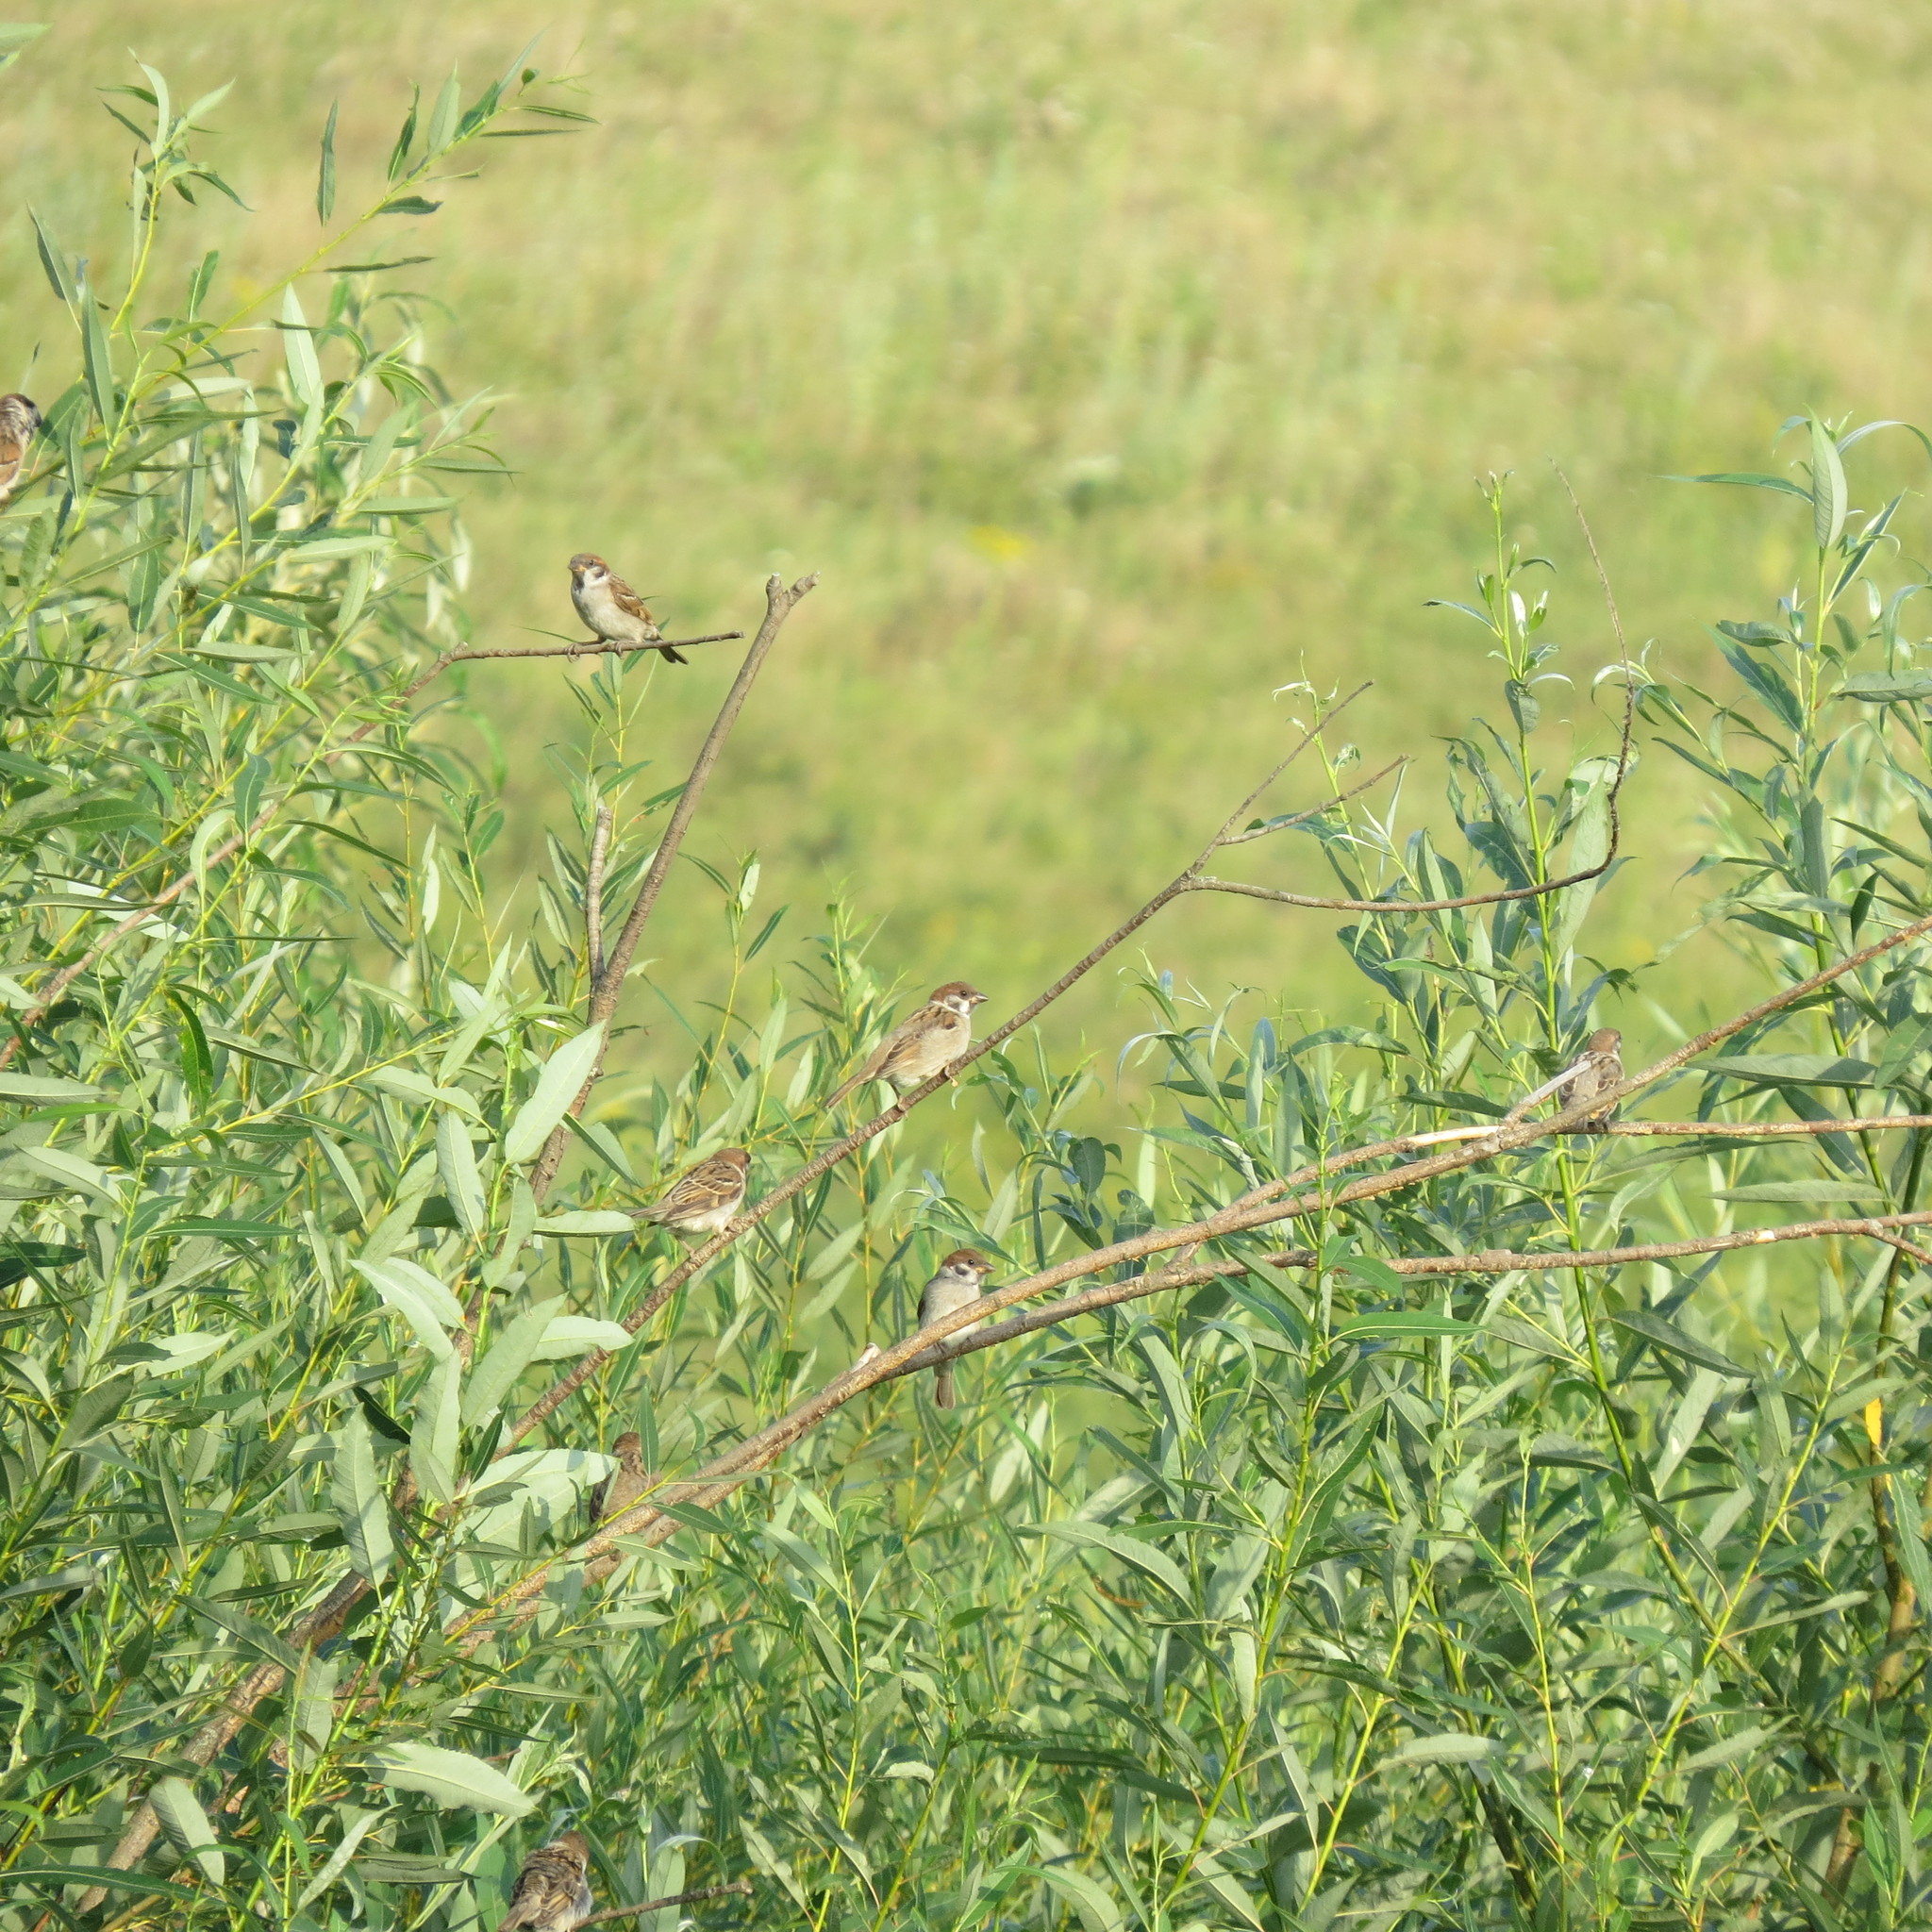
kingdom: Animalia
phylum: Chordata
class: Aves
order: Passeriformes
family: Passeridae
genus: Passer
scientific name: Passer montanus
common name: Eurasian tree sparrow
